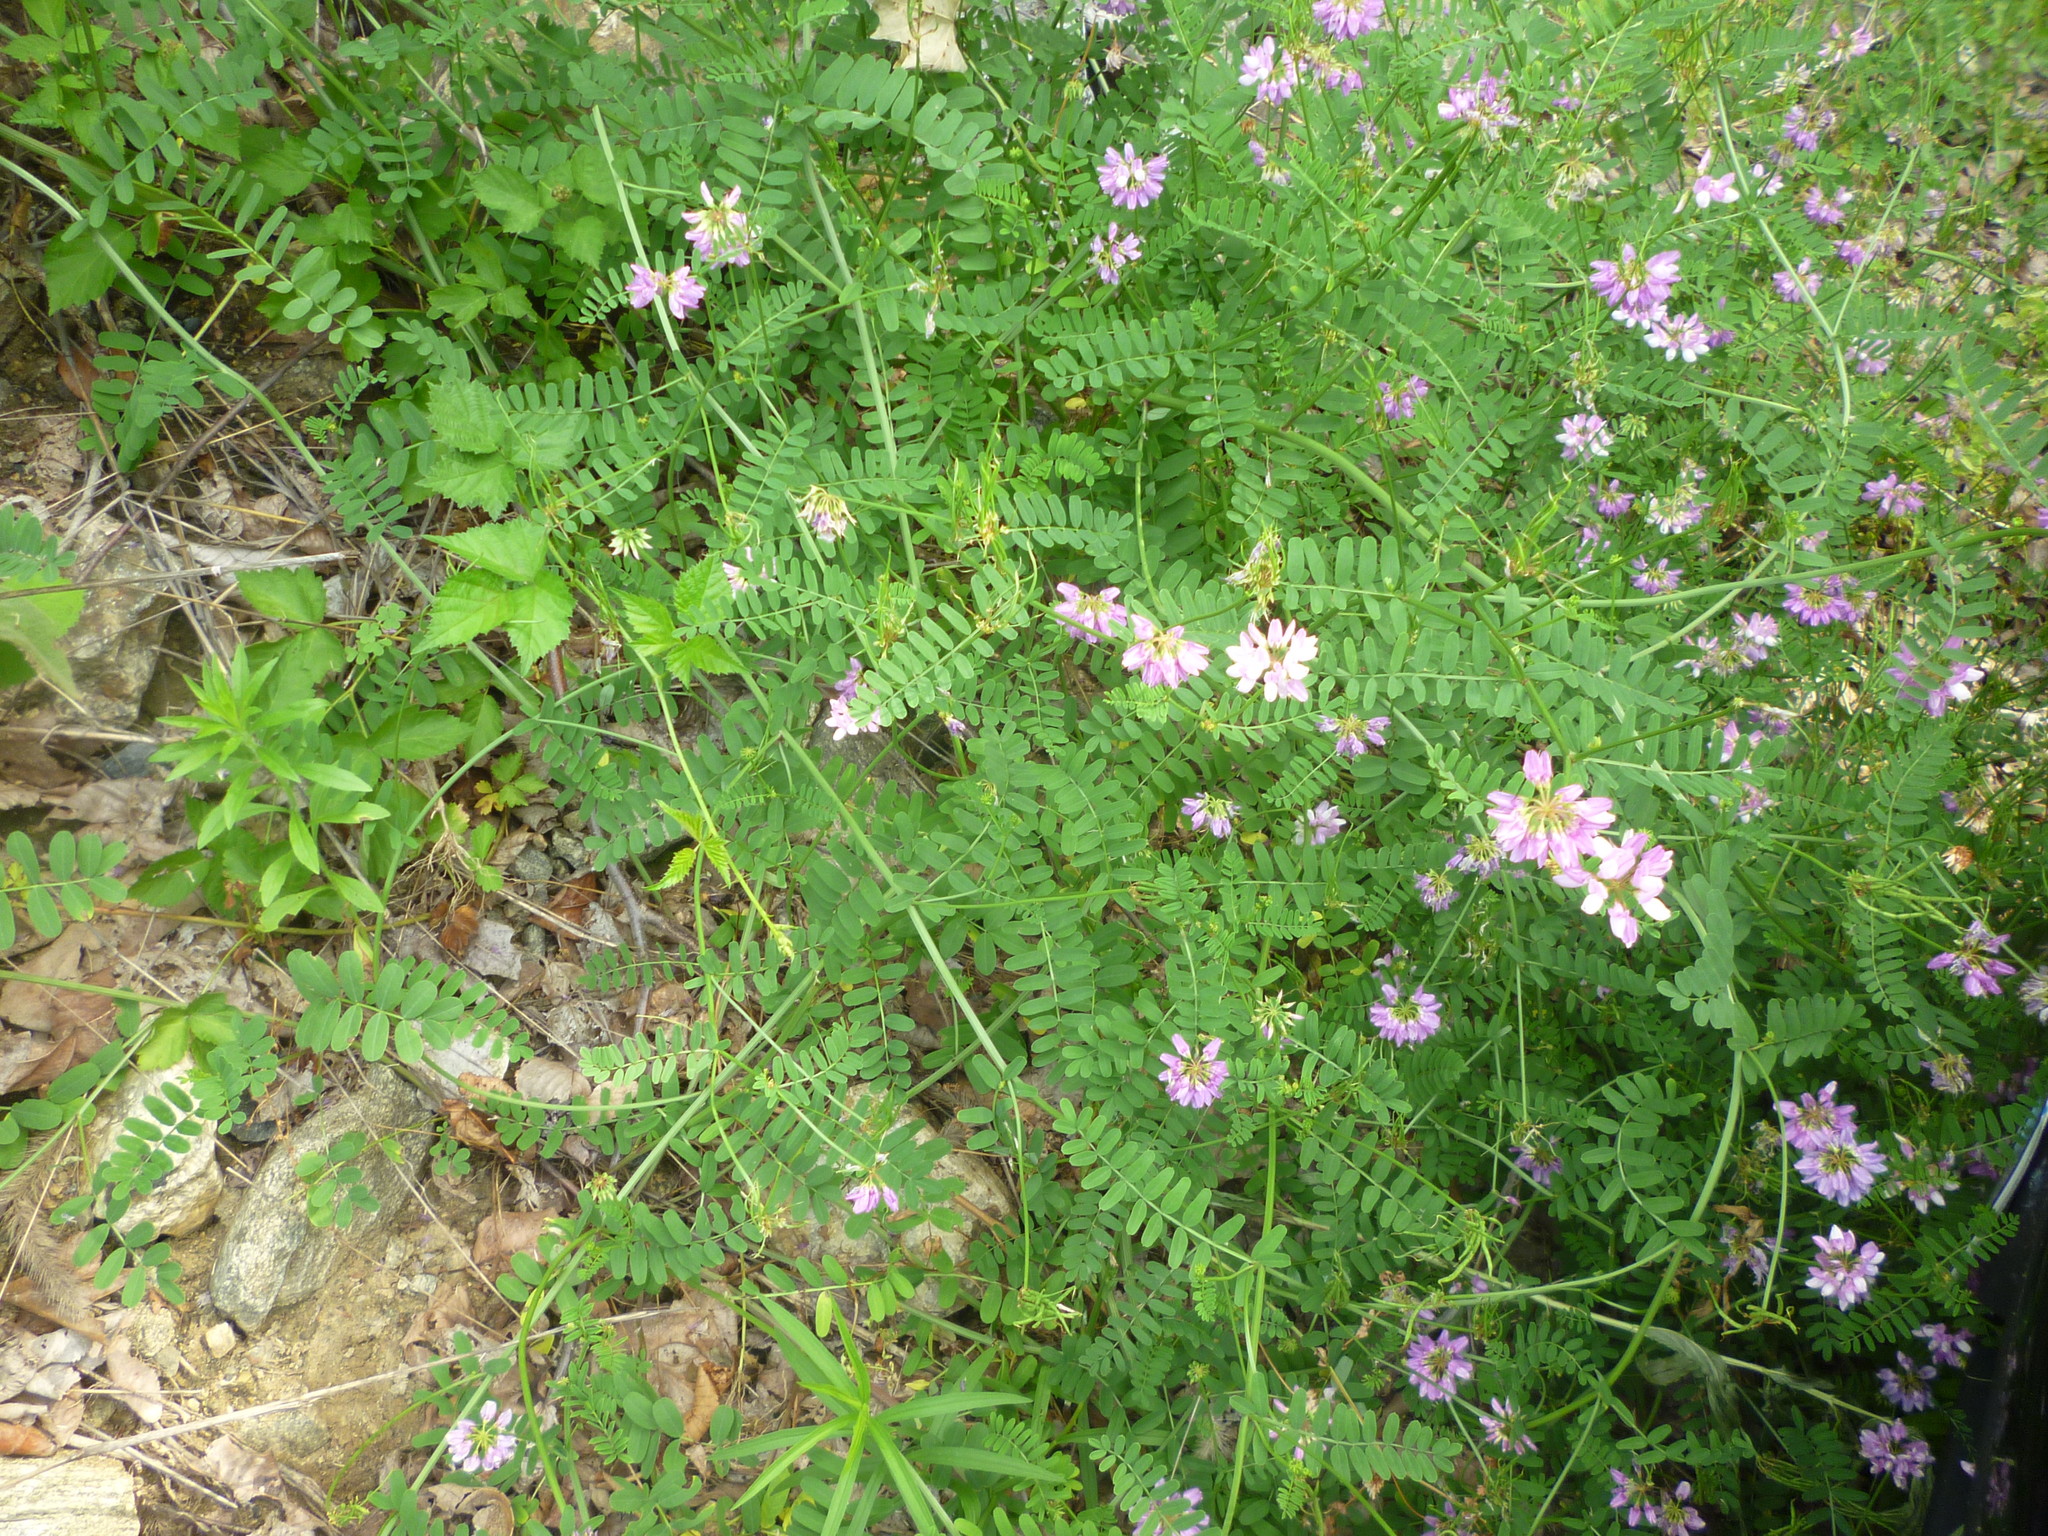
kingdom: Plantae
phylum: Tracheophyta
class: Magnoliopsida
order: Fabales
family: Fabaceae
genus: Coronilla
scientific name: Coronilla varia
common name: Crownvetch
